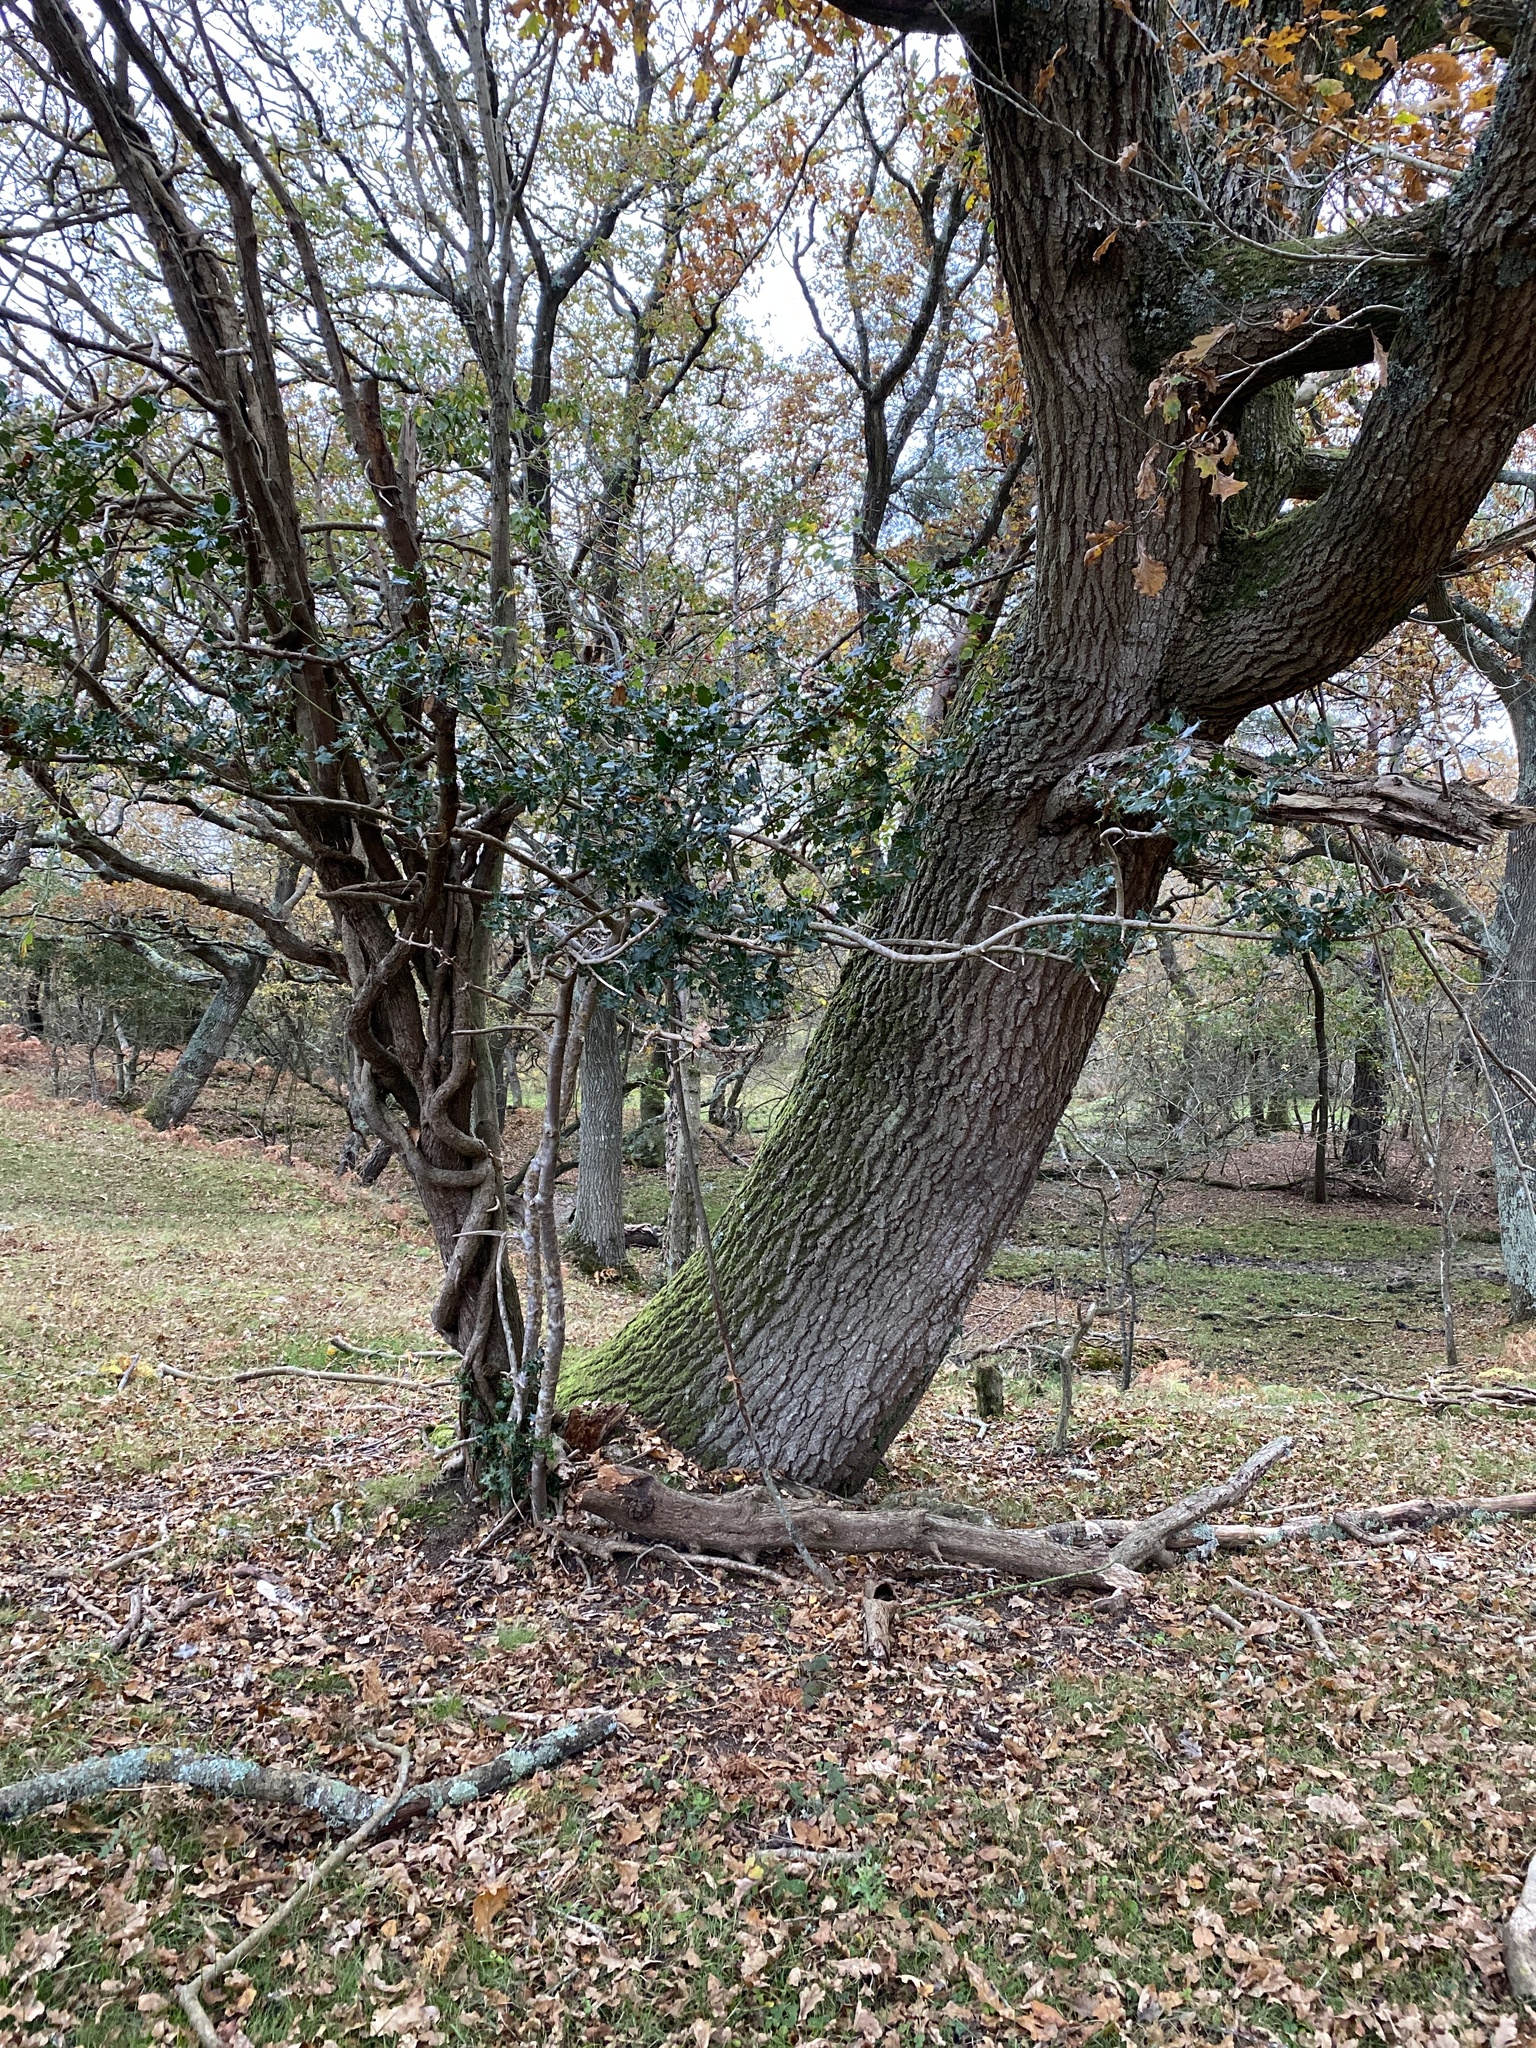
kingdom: Plantae
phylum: Tracheophyta
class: Magnoliopsida
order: Aquifoliales
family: Aquifoliaceae
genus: Ilex
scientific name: Ilex aquifolium
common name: English holly
